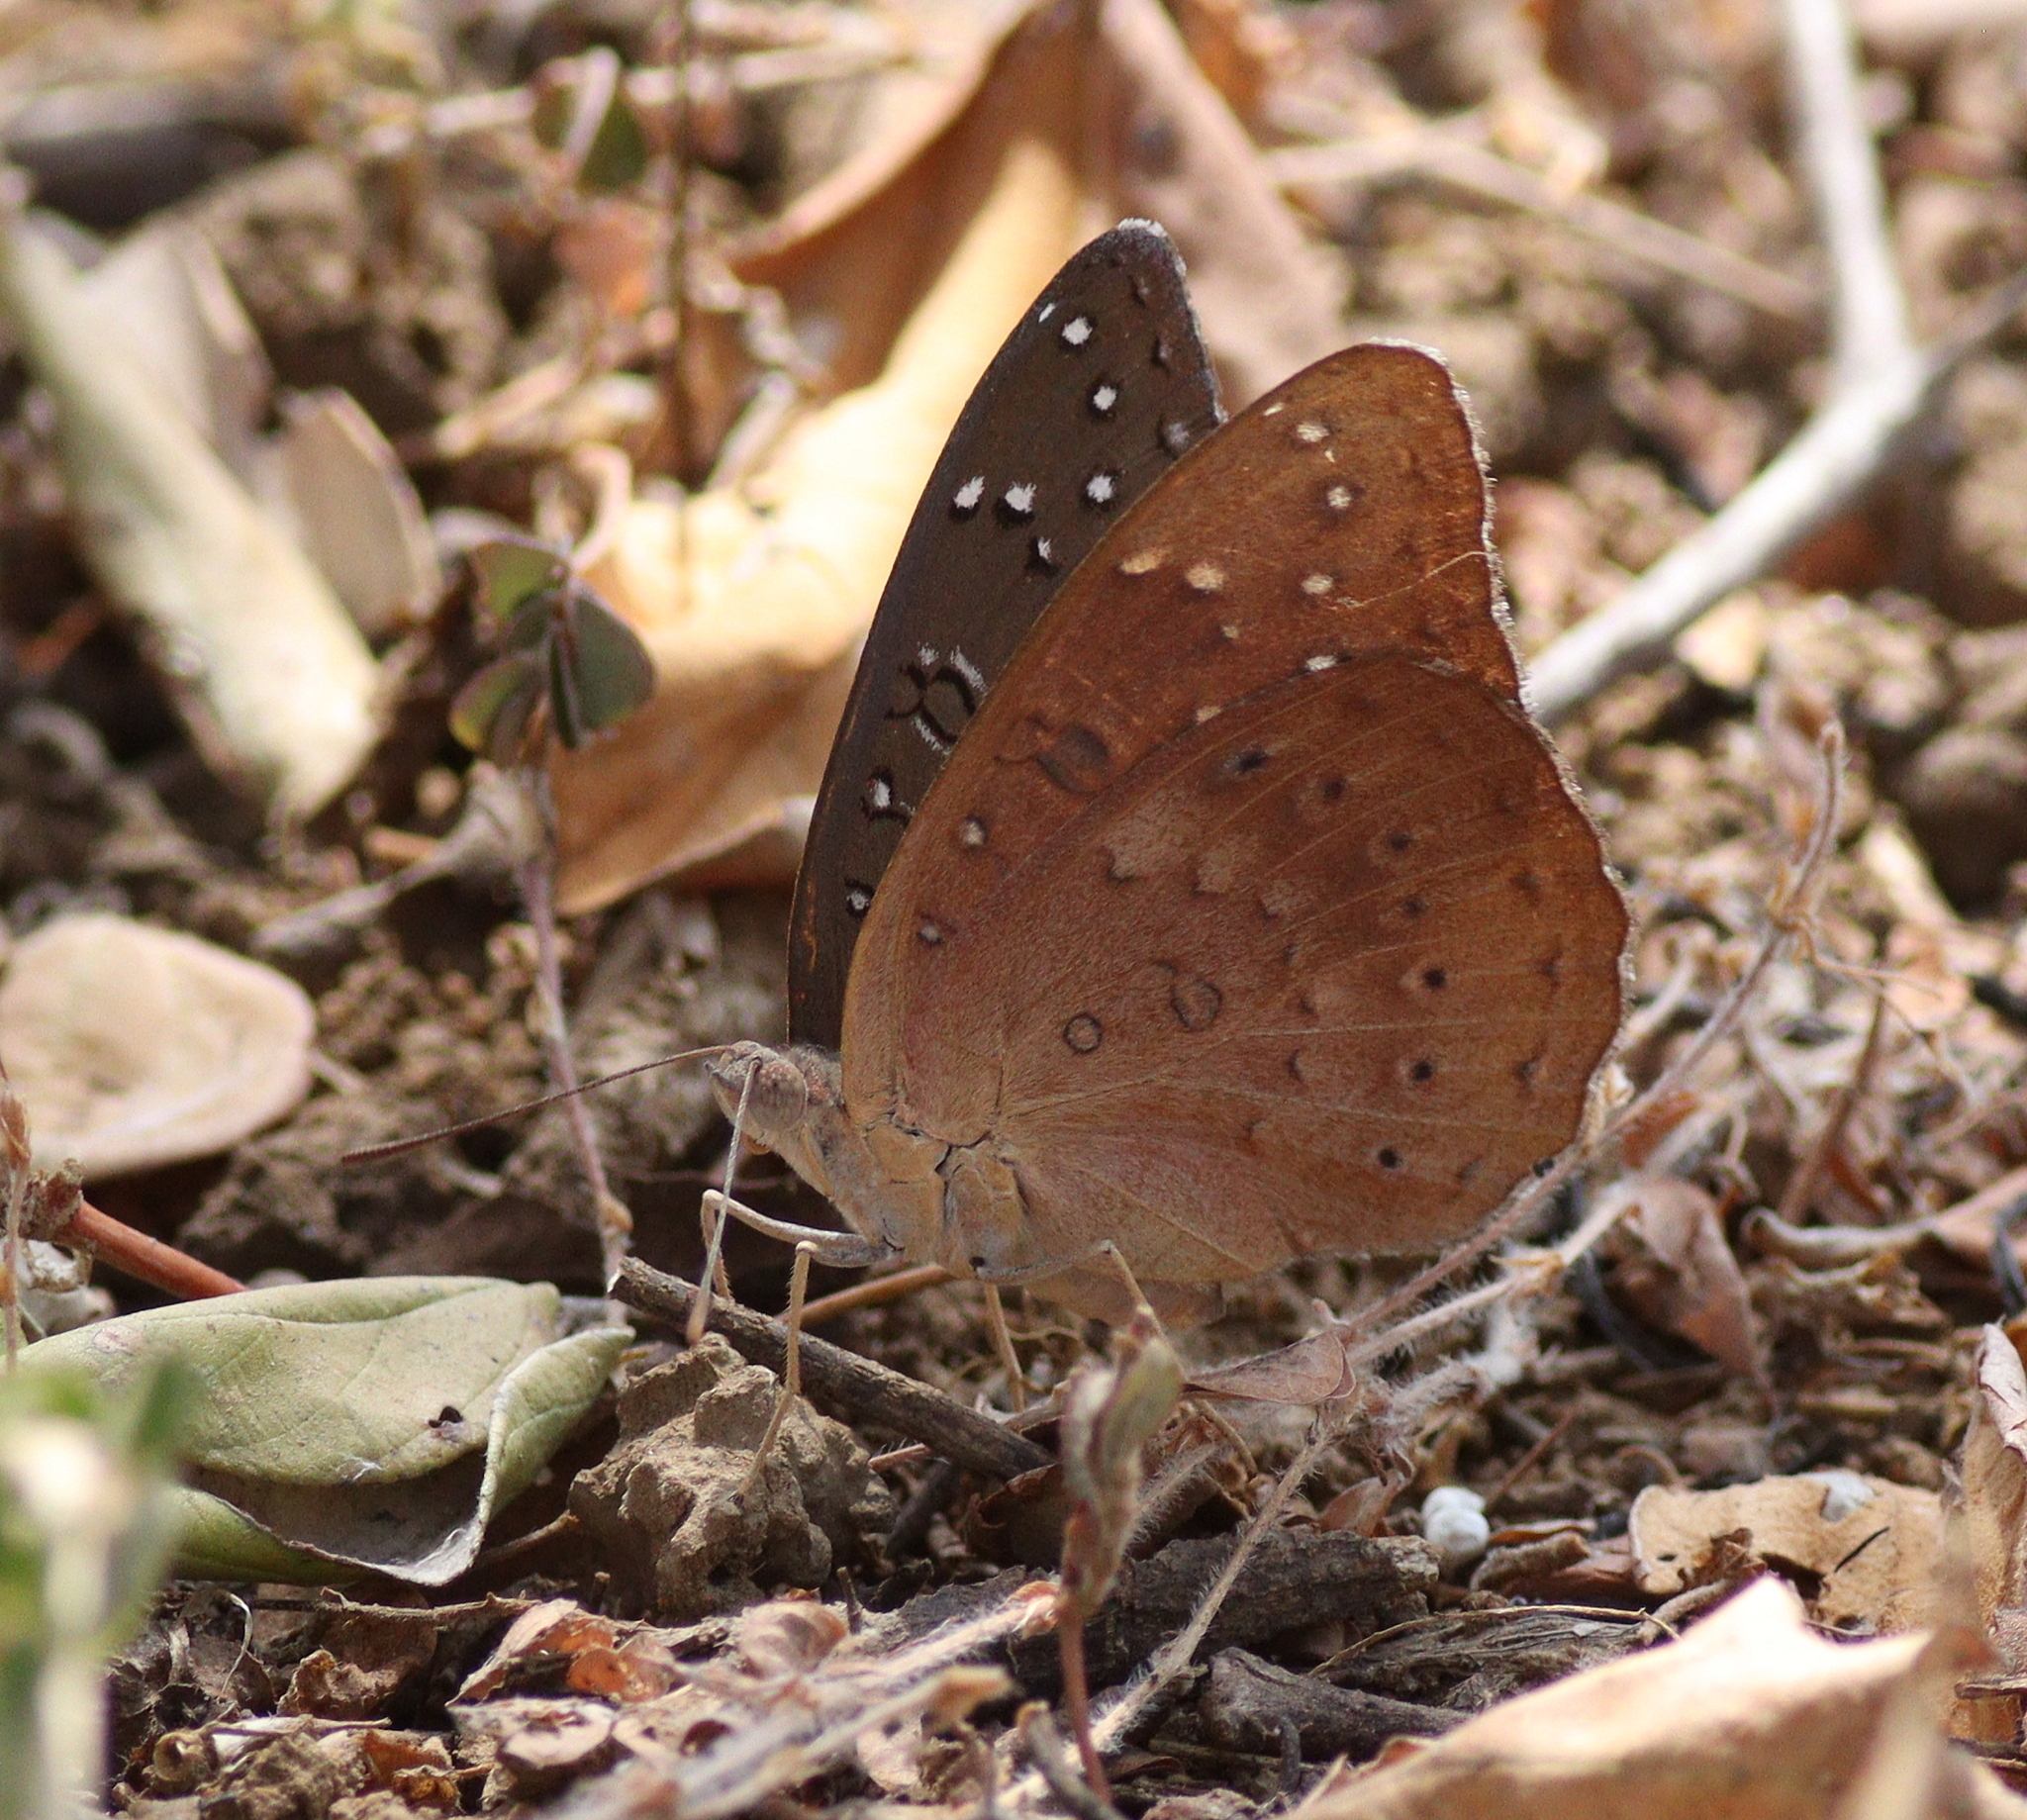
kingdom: Animalia
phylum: Arthropoda
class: Insecta
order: Lepidoptera
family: Nymphalidae
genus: Hamanumida
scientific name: Hamanumida daedalus
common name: Guinea-fowl butterfly
